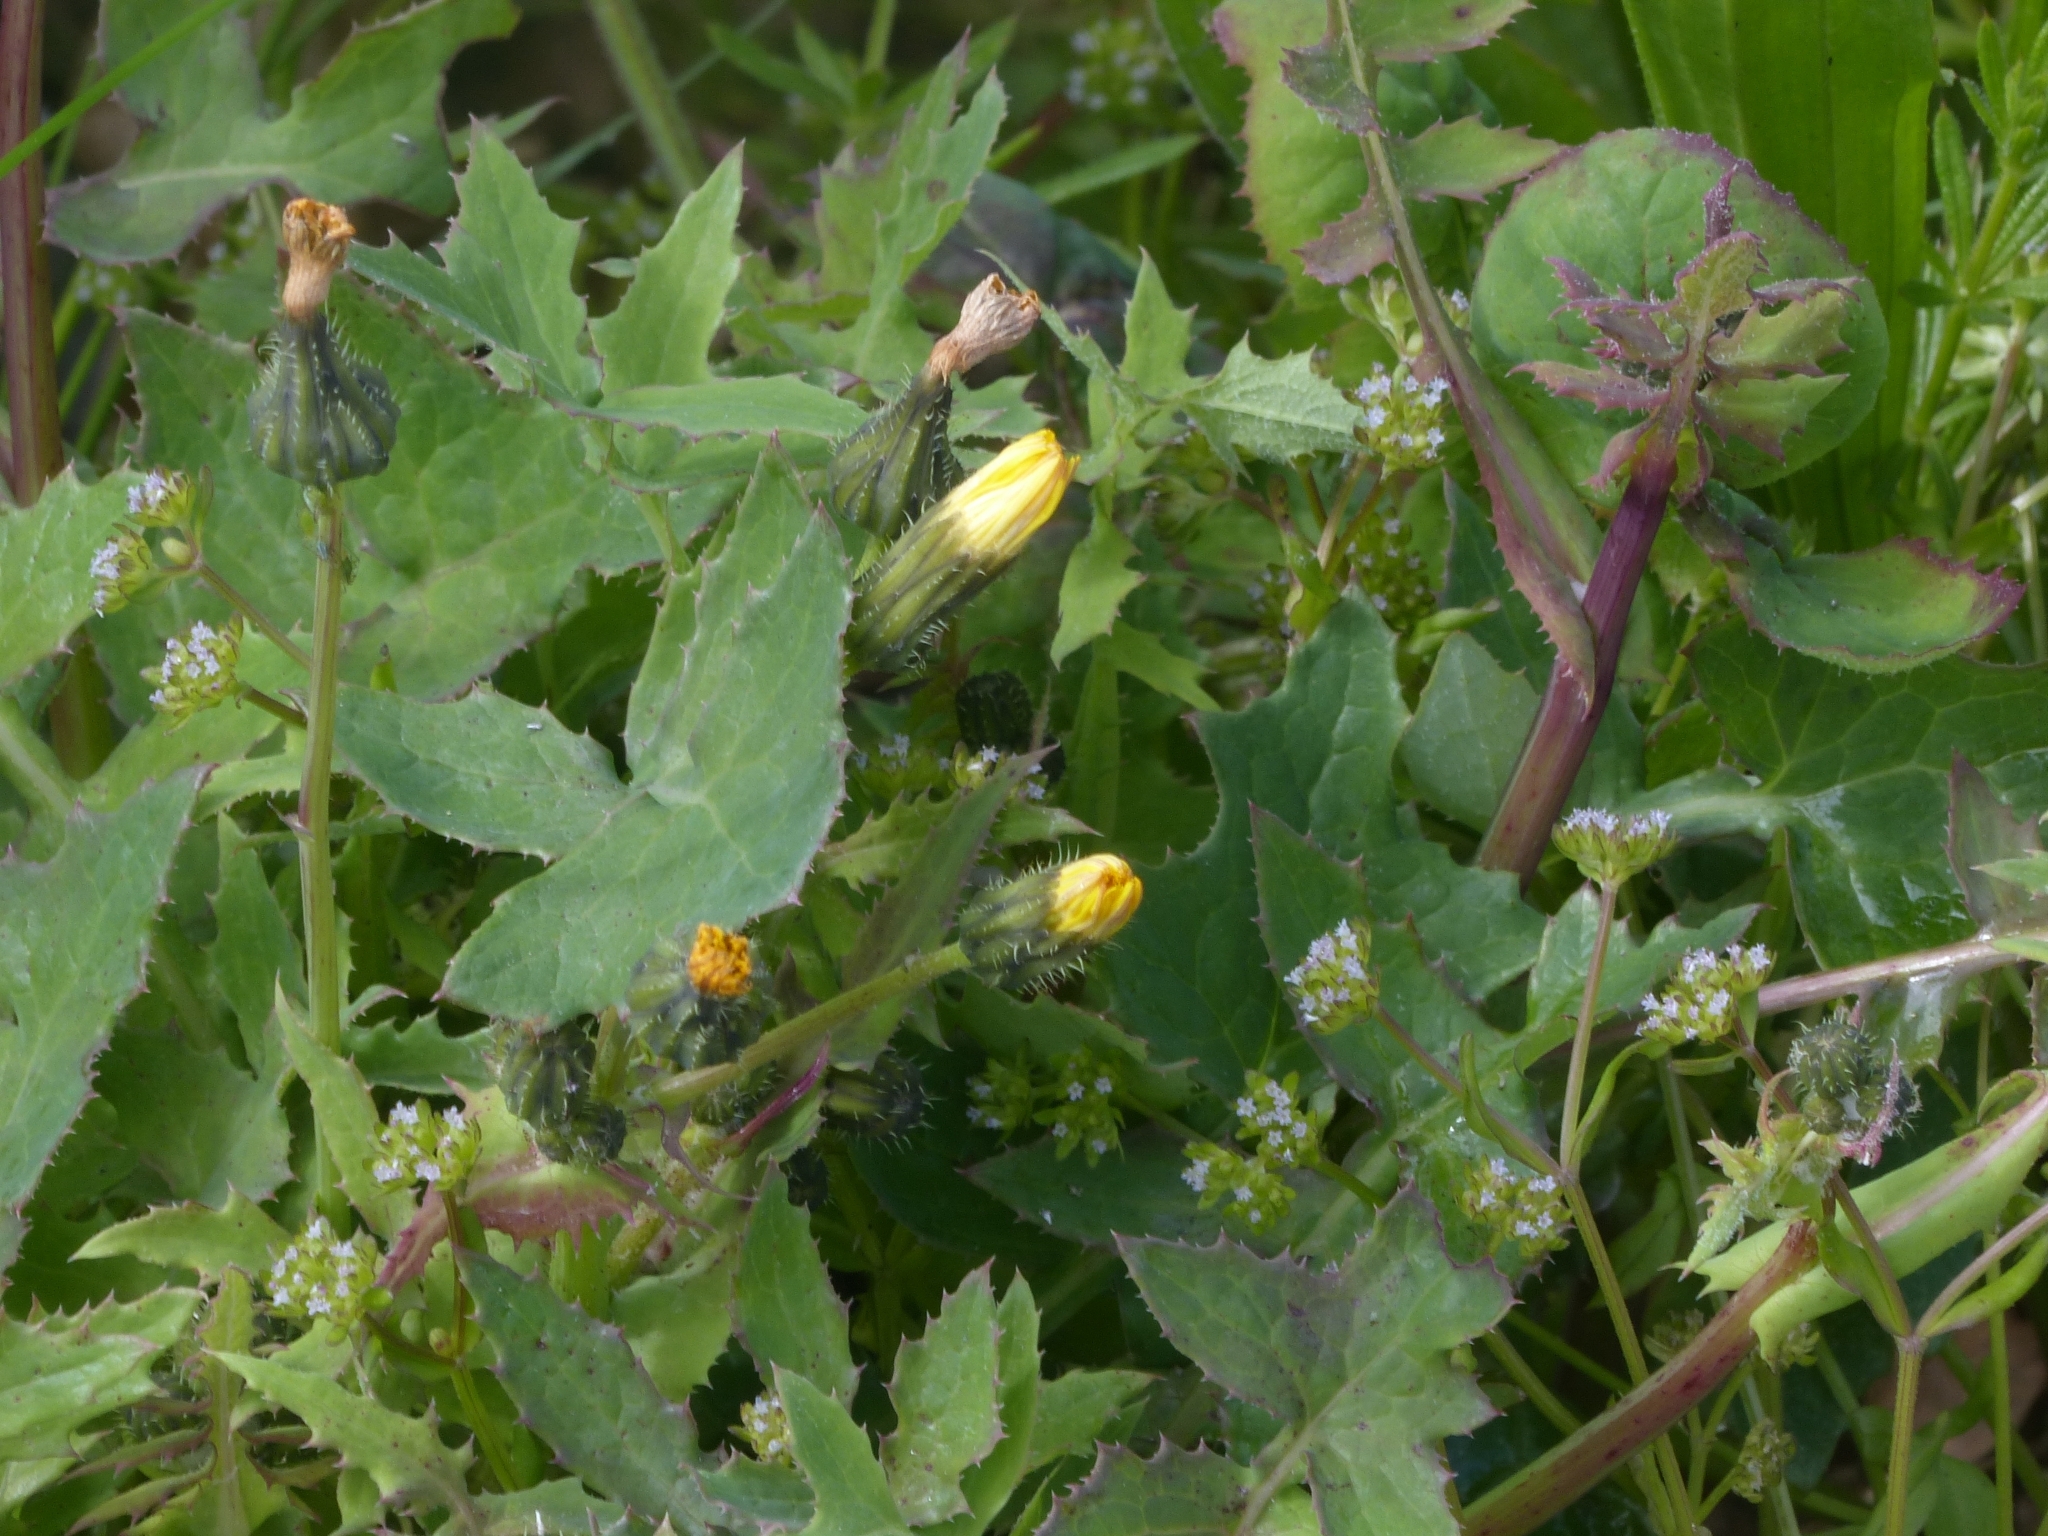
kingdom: Plantae
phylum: Tracheophyta
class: Magnoliopsida
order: Asterales
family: Asteraceae
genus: Sonchus
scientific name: Sonchus oleraceus
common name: Common sowthistle
